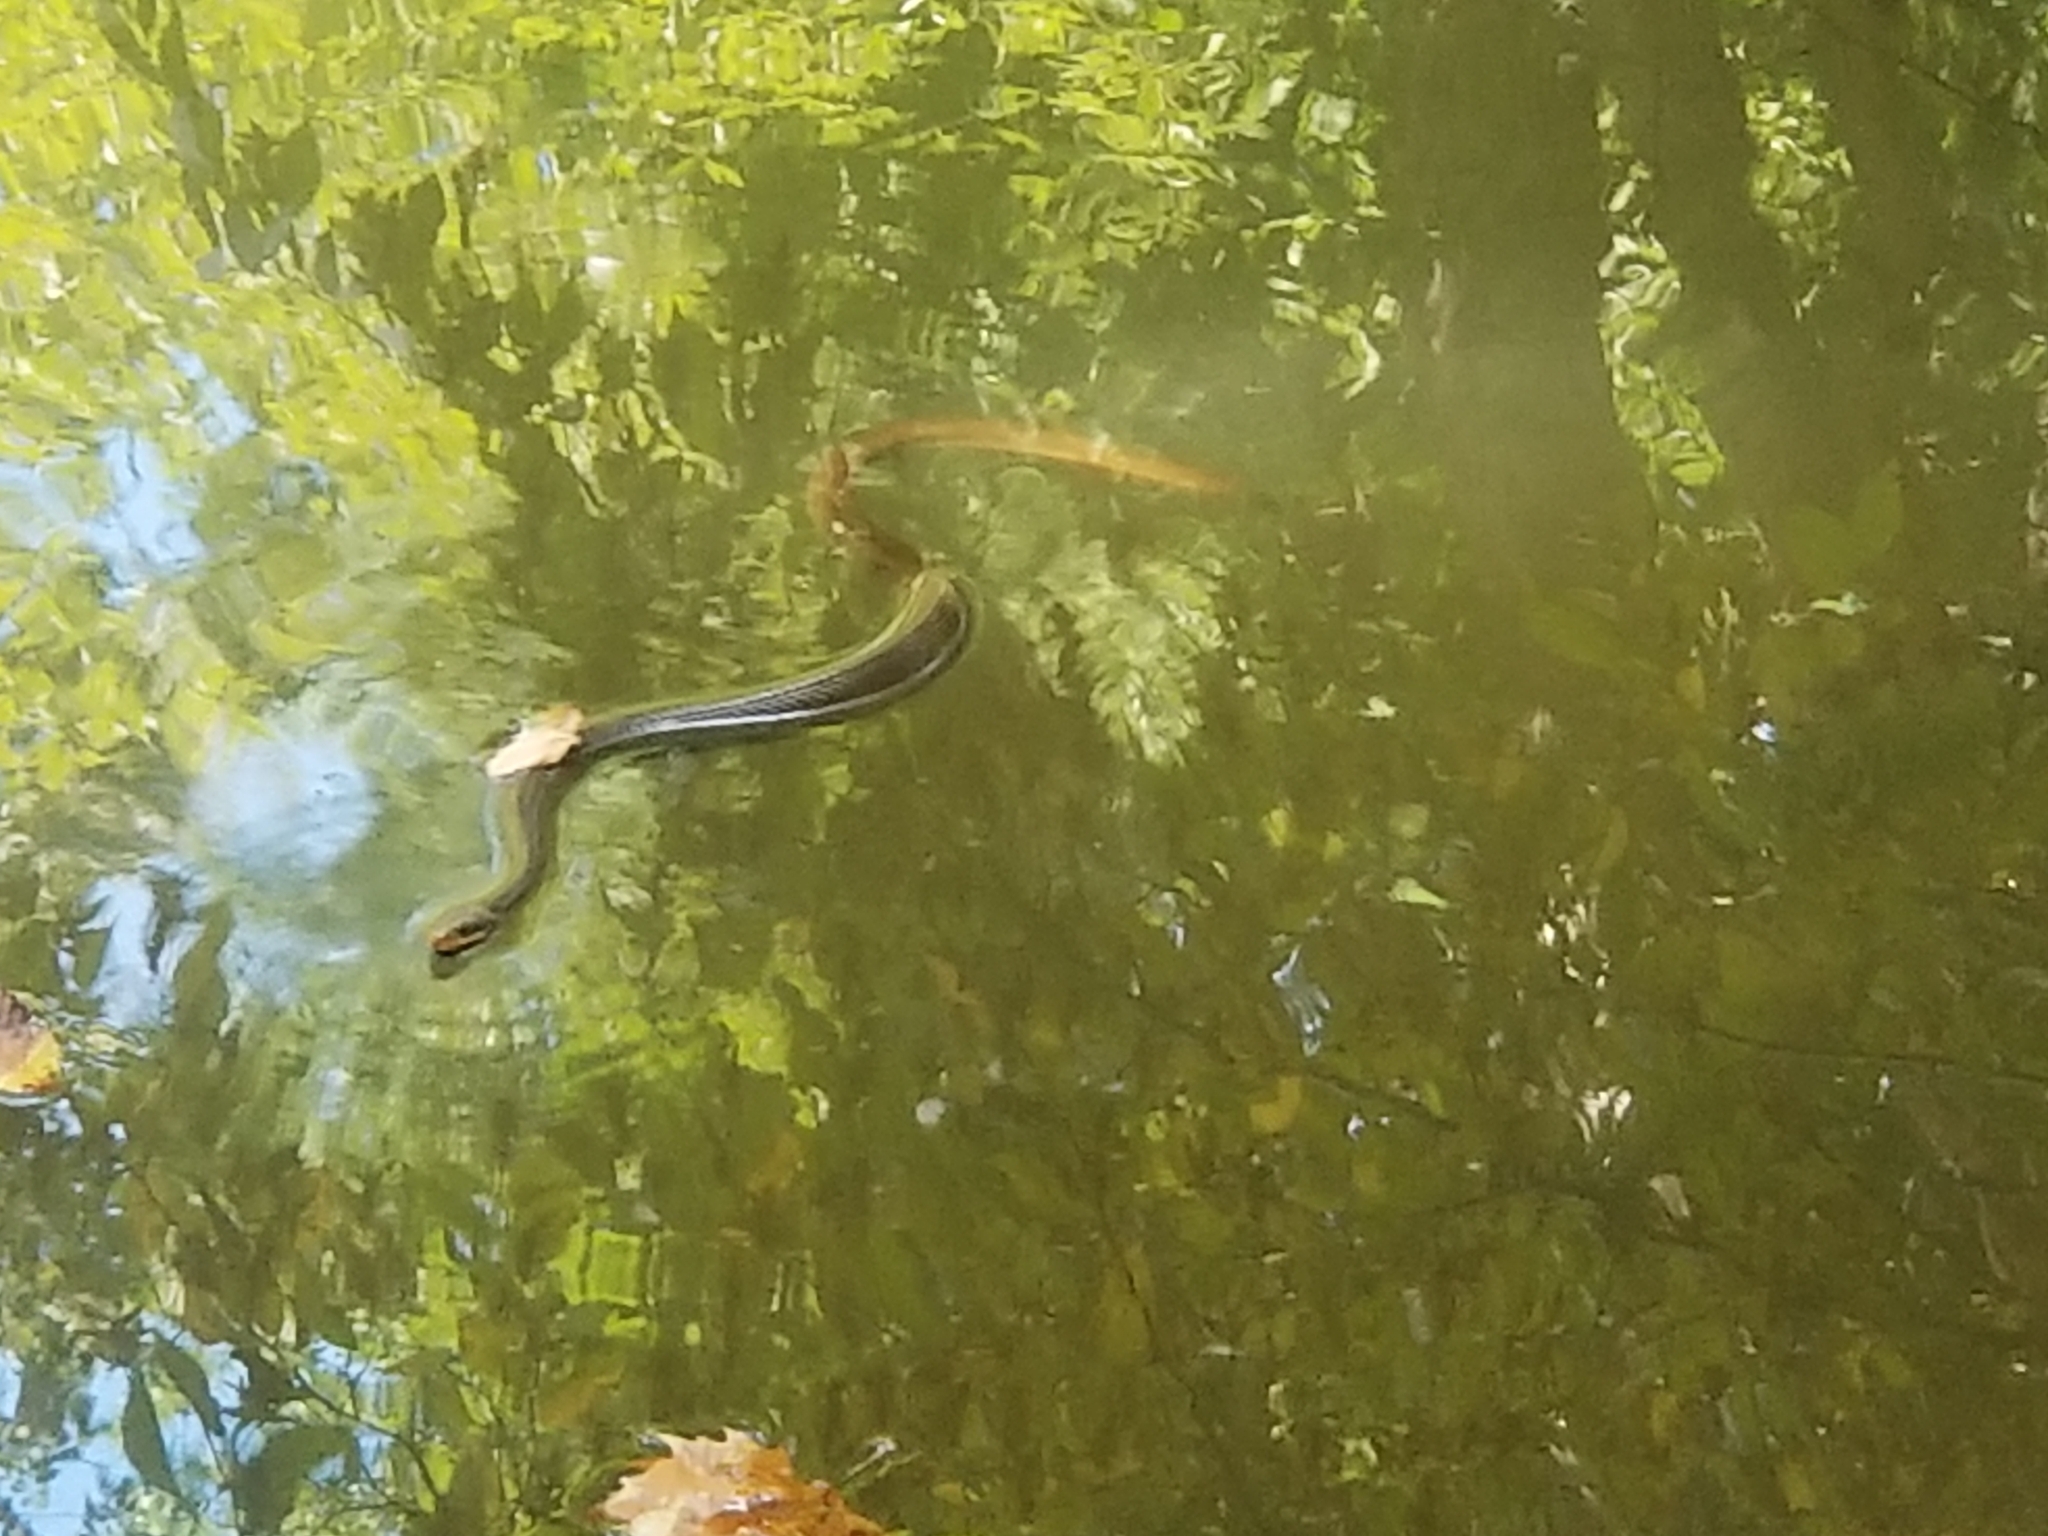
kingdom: Animalia
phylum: Chordata
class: Squamata
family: Colubridae
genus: Nerodia
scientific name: Nerodia erythrogaster
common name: Plainbelly water snake
